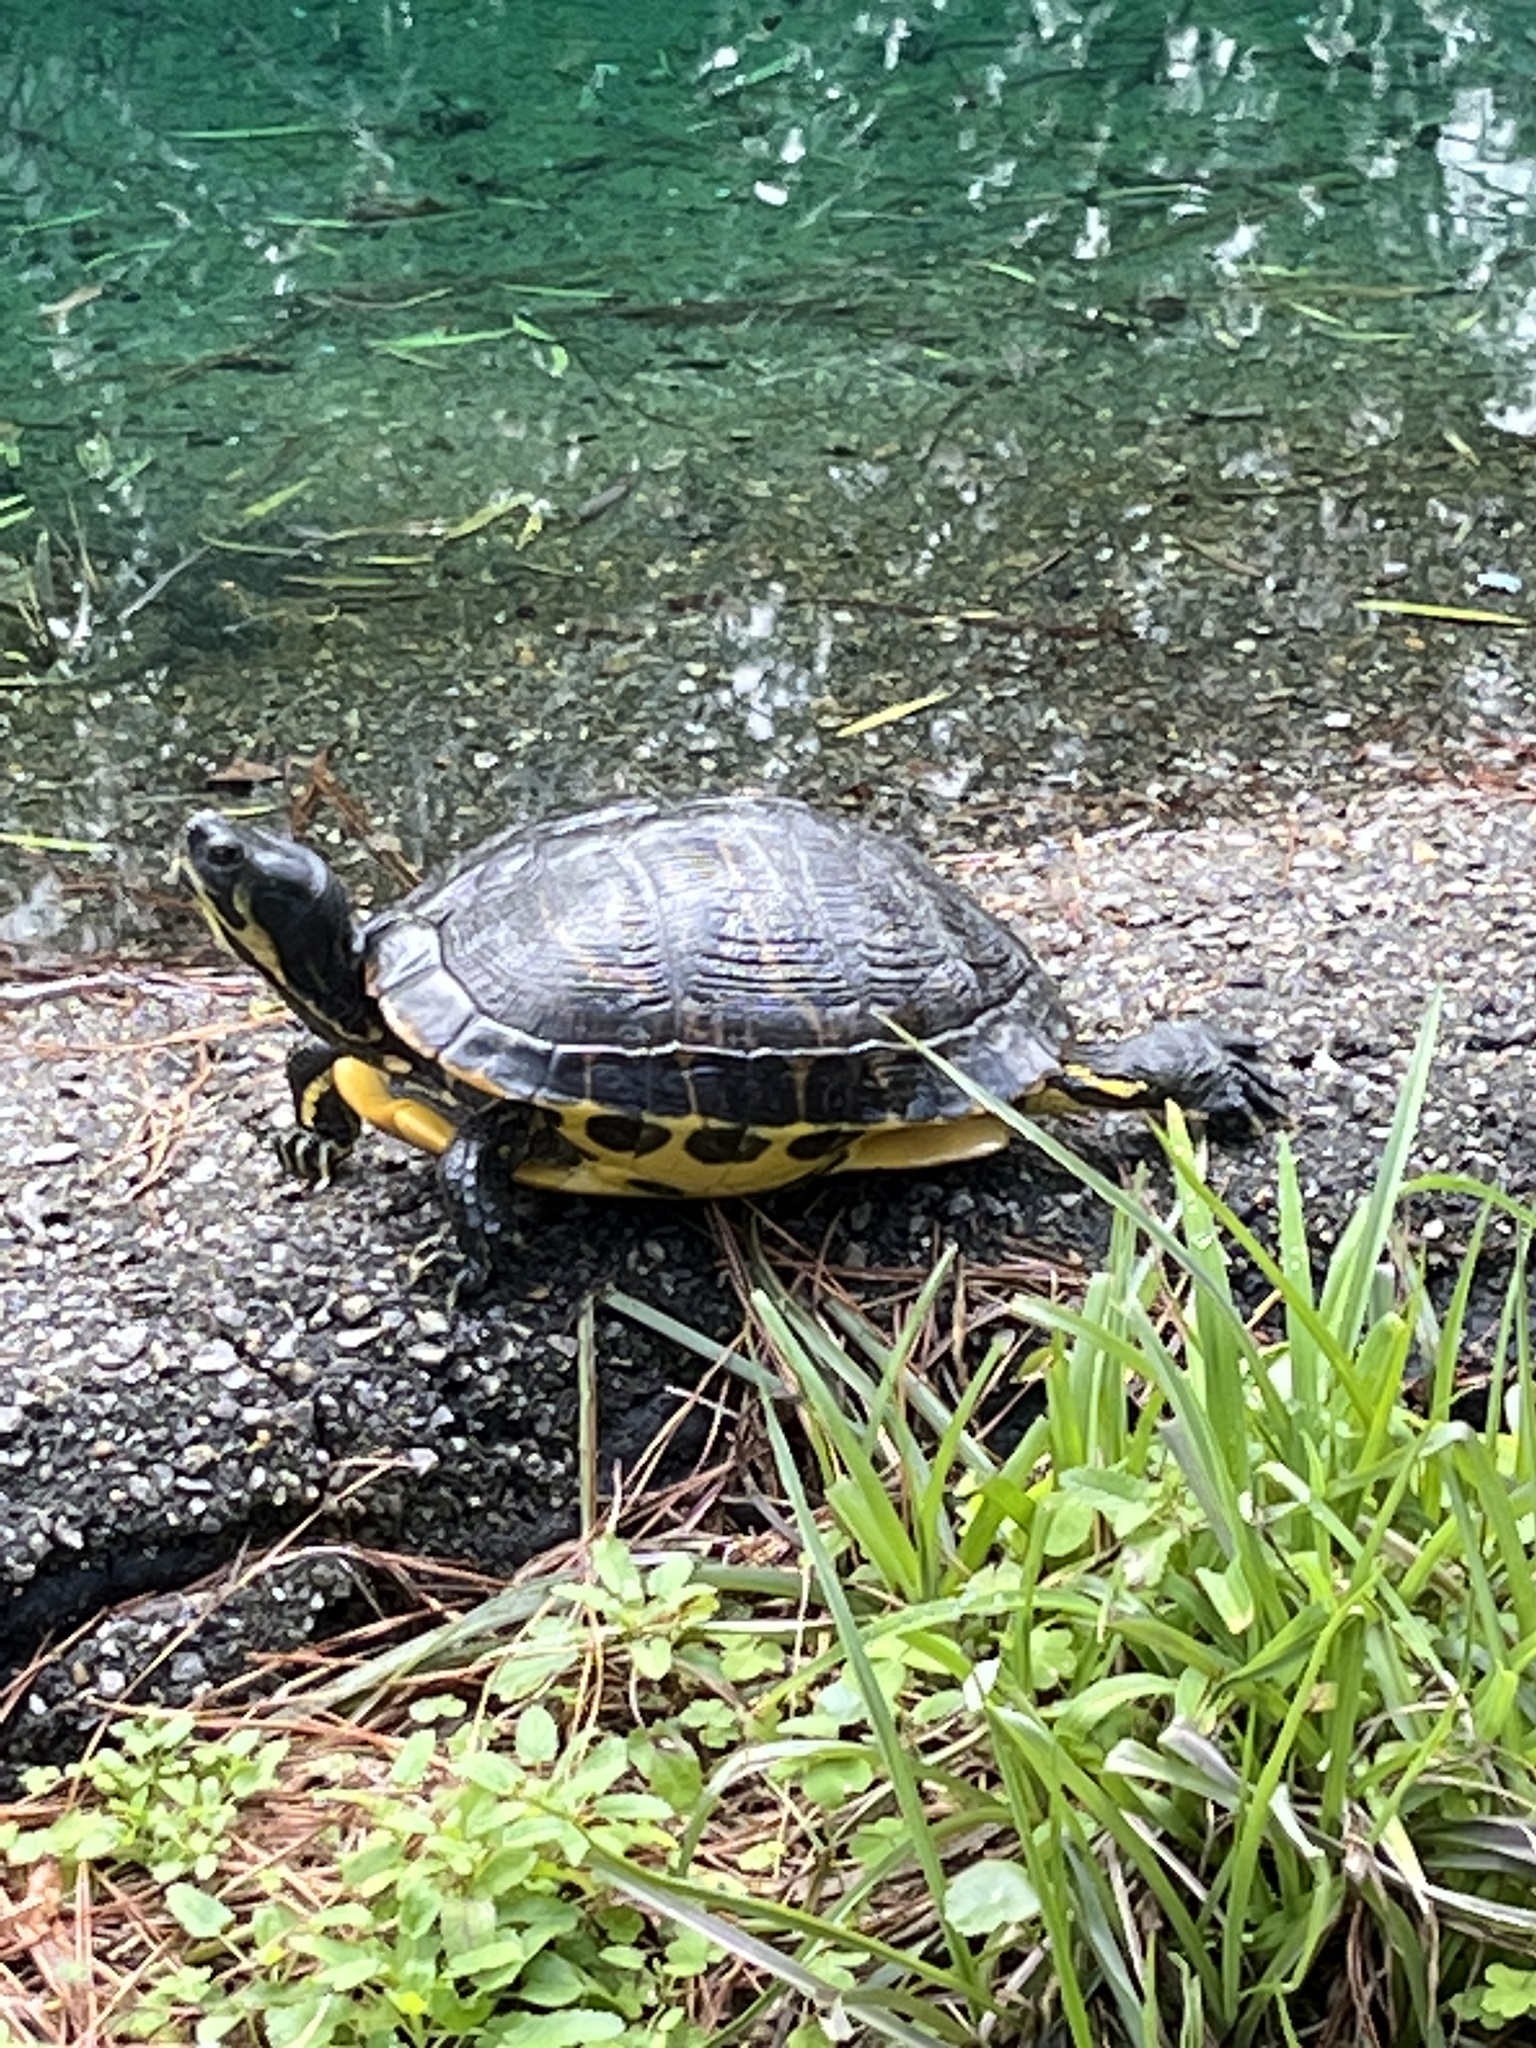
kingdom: Animalia
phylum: Chordata
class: Testudines
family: Emydidae
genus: Trachemys
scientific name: Trachemys scripta
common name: Slider
